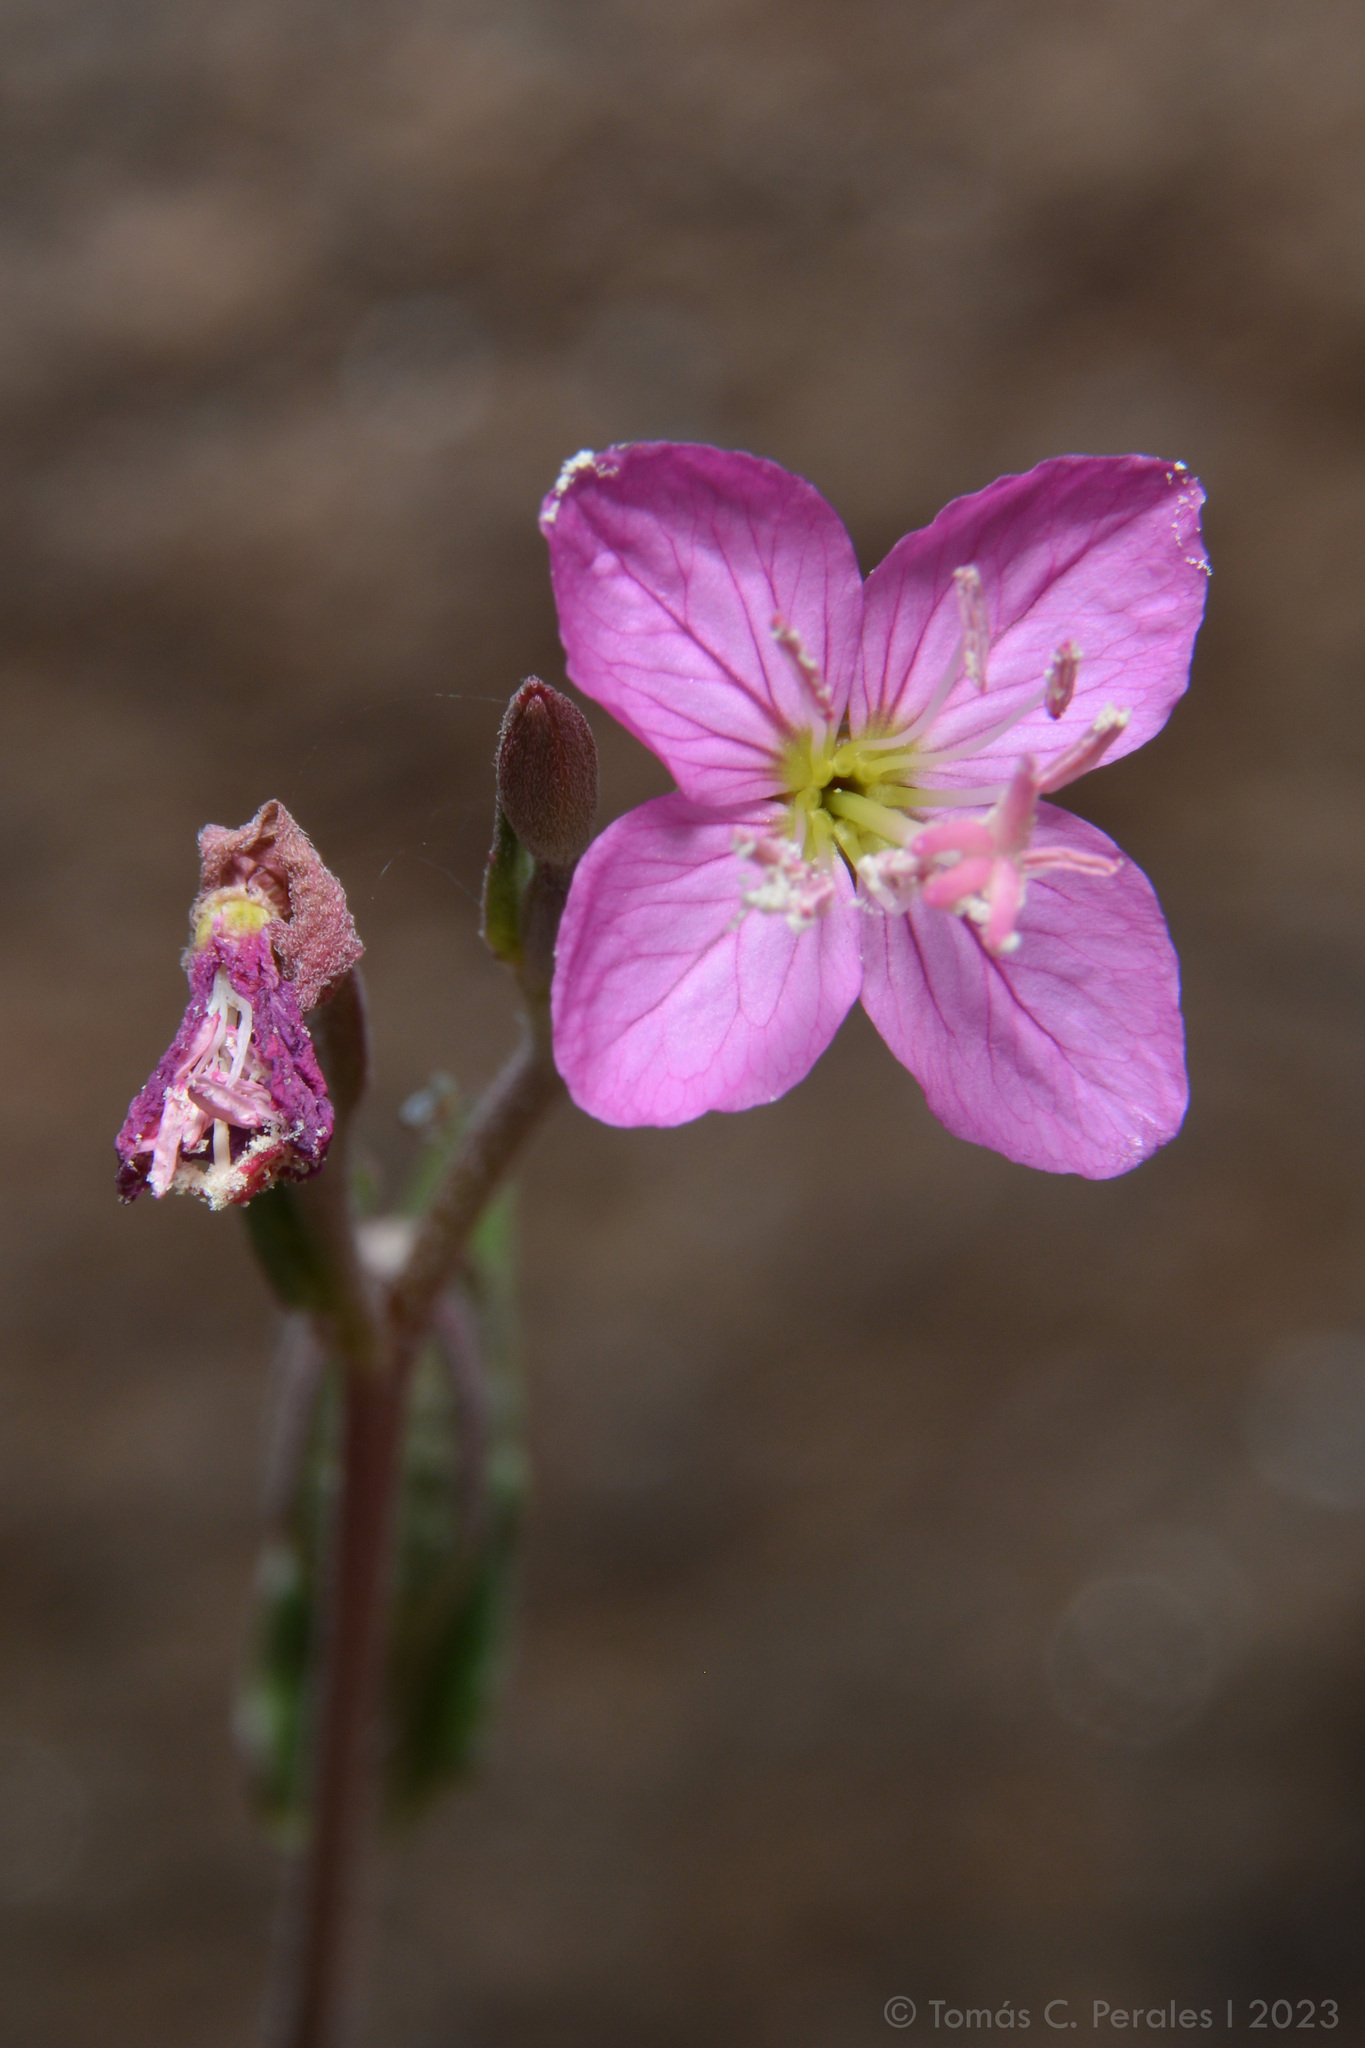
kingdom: Plantae
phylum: Tracheophyta
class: Magnoliopsida
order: Myrtales
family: Onagraceae
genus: Oenothera
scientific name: Oenothera rosea
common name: Rosy evening-primrose
